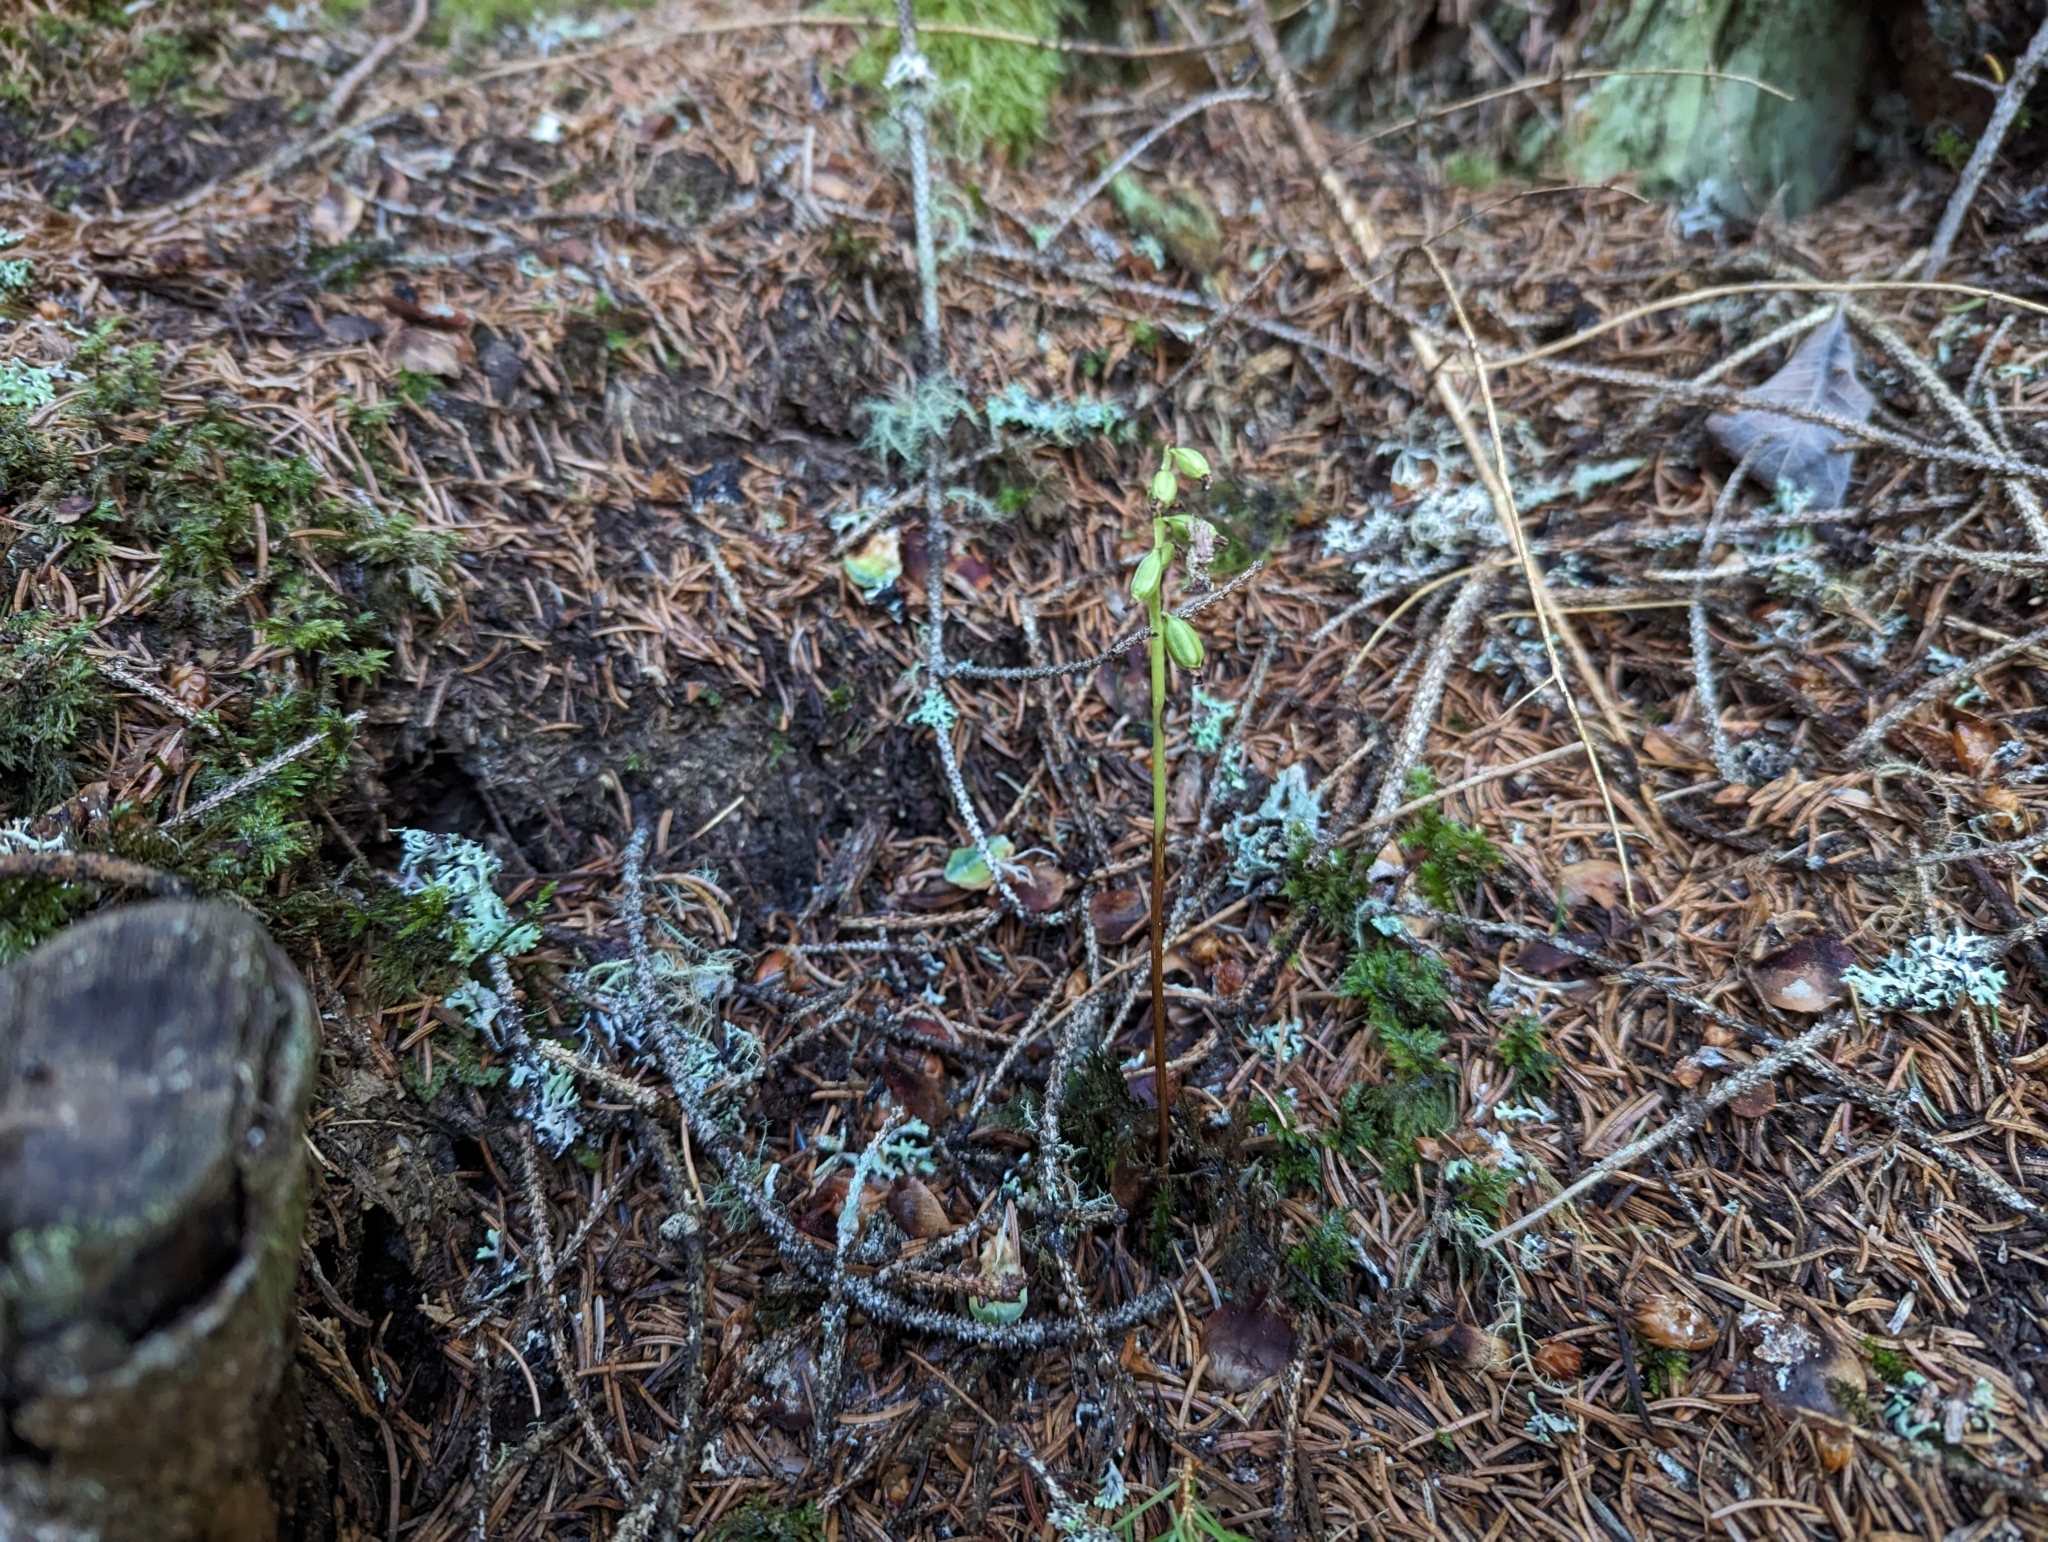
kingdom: Plantae
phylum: Tracheophyta
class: Liliopsida
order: Asparagales
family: Orchidaceae
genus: Corallorhiza
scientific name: Corallorhiza trifida
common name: Yellow coralroot
